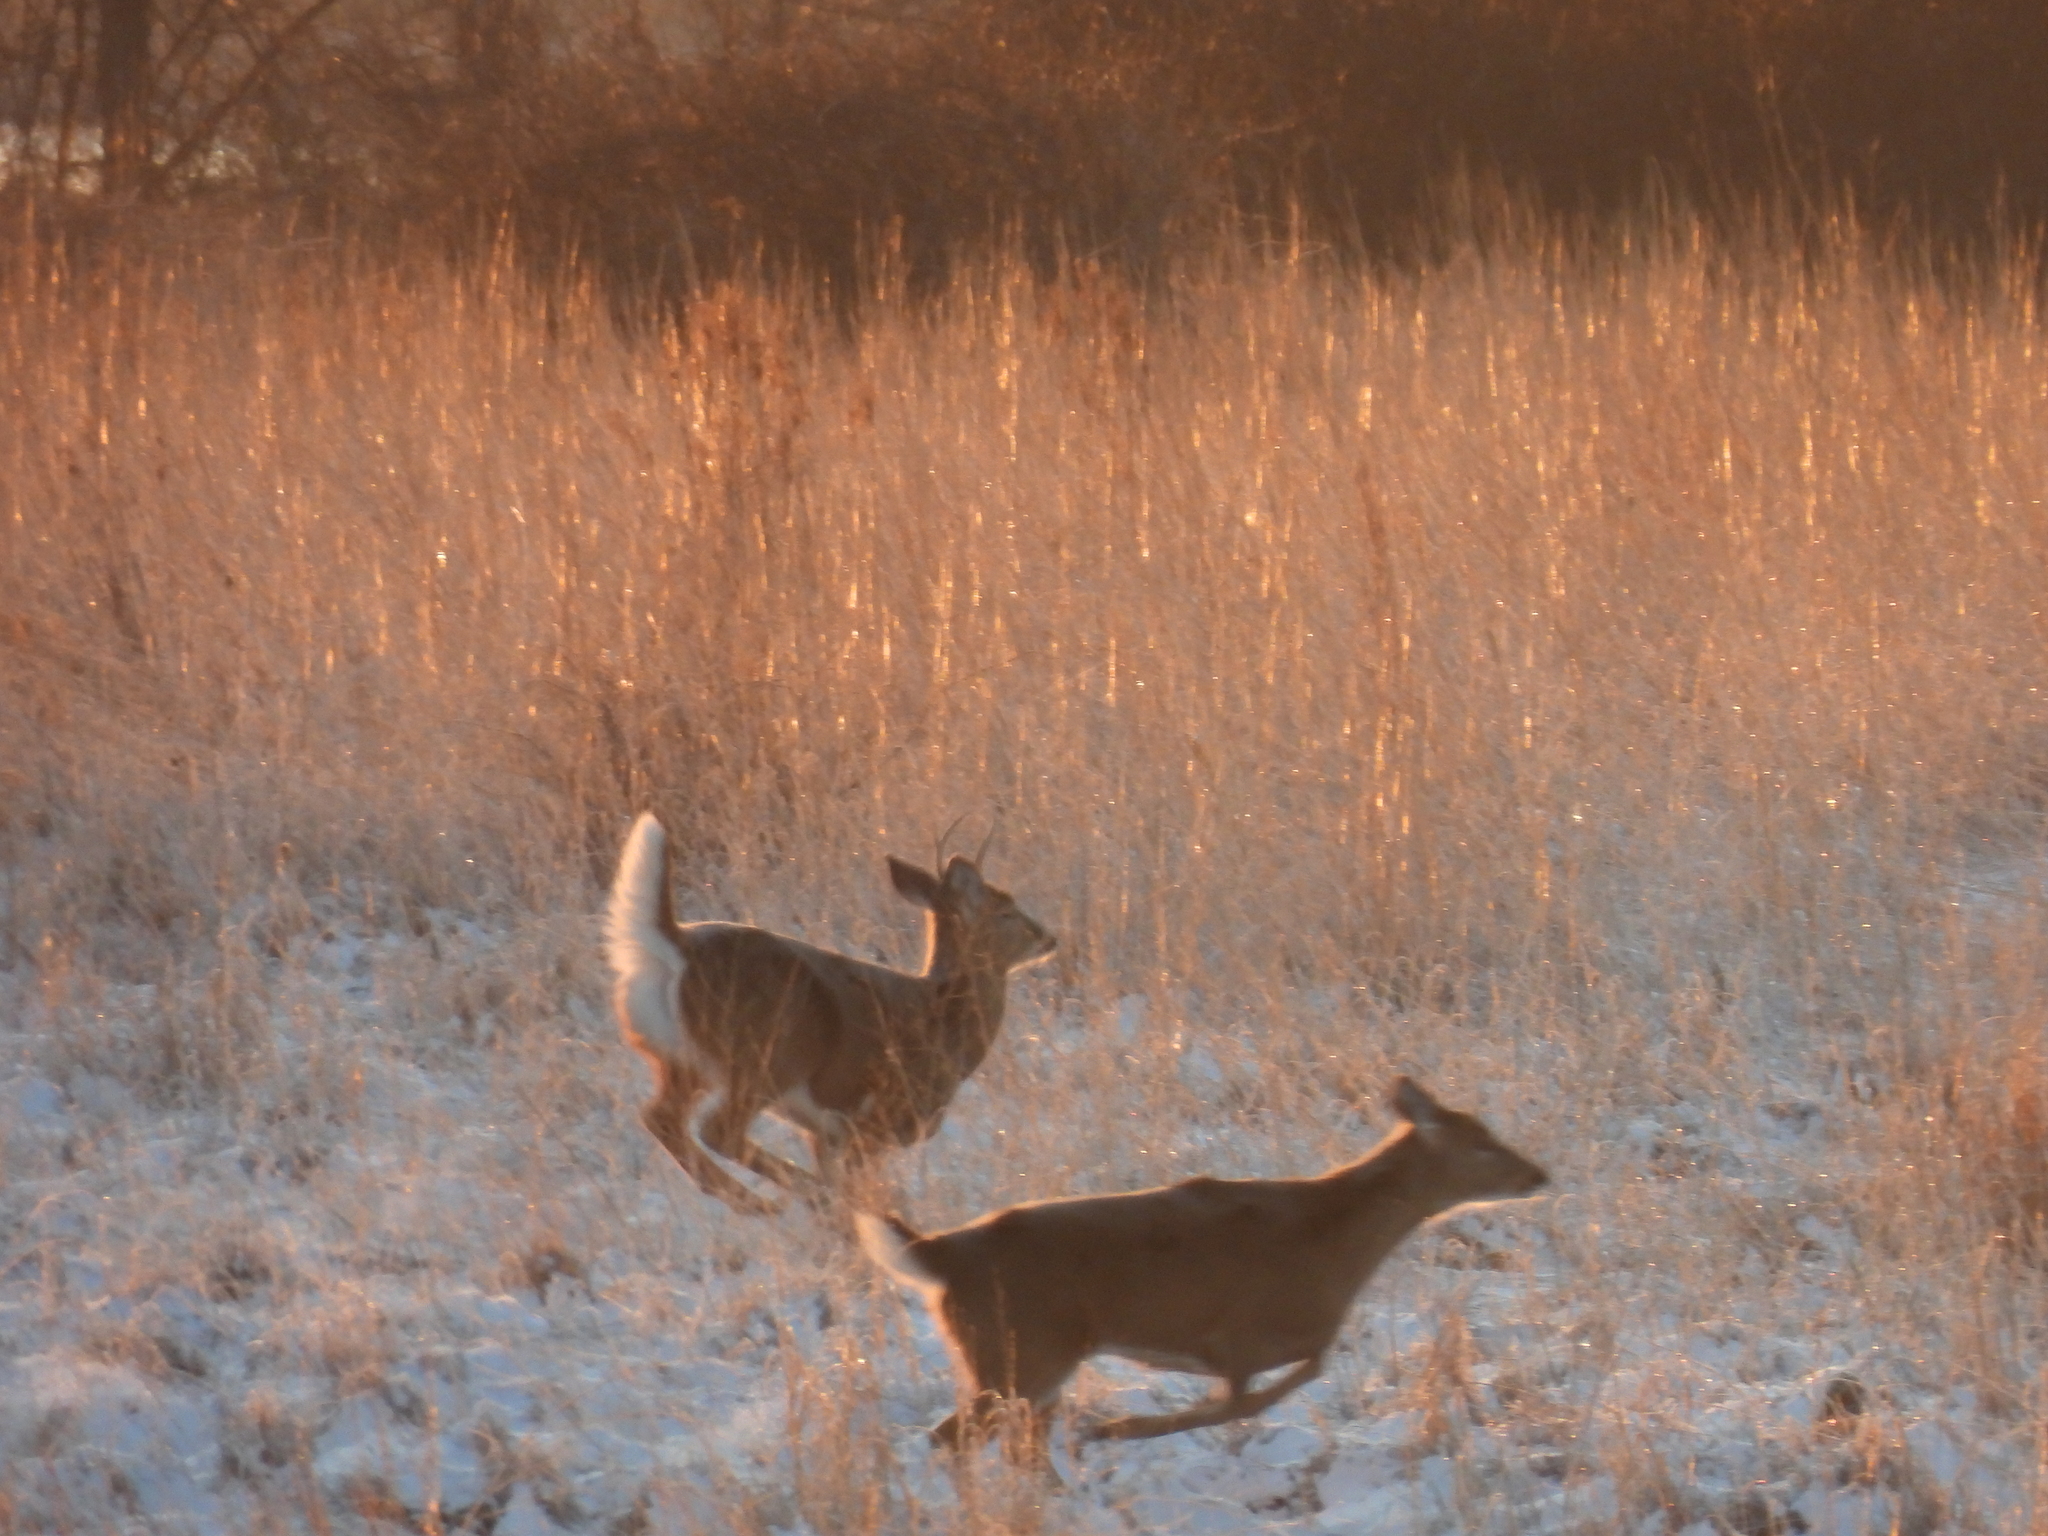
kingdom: Animalia
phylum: Chordata
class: Mammalia
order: Artiodactyla
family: Cervidae
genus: Odocoileus
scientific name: Odocoileus virginianus
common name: White-tailed deer
